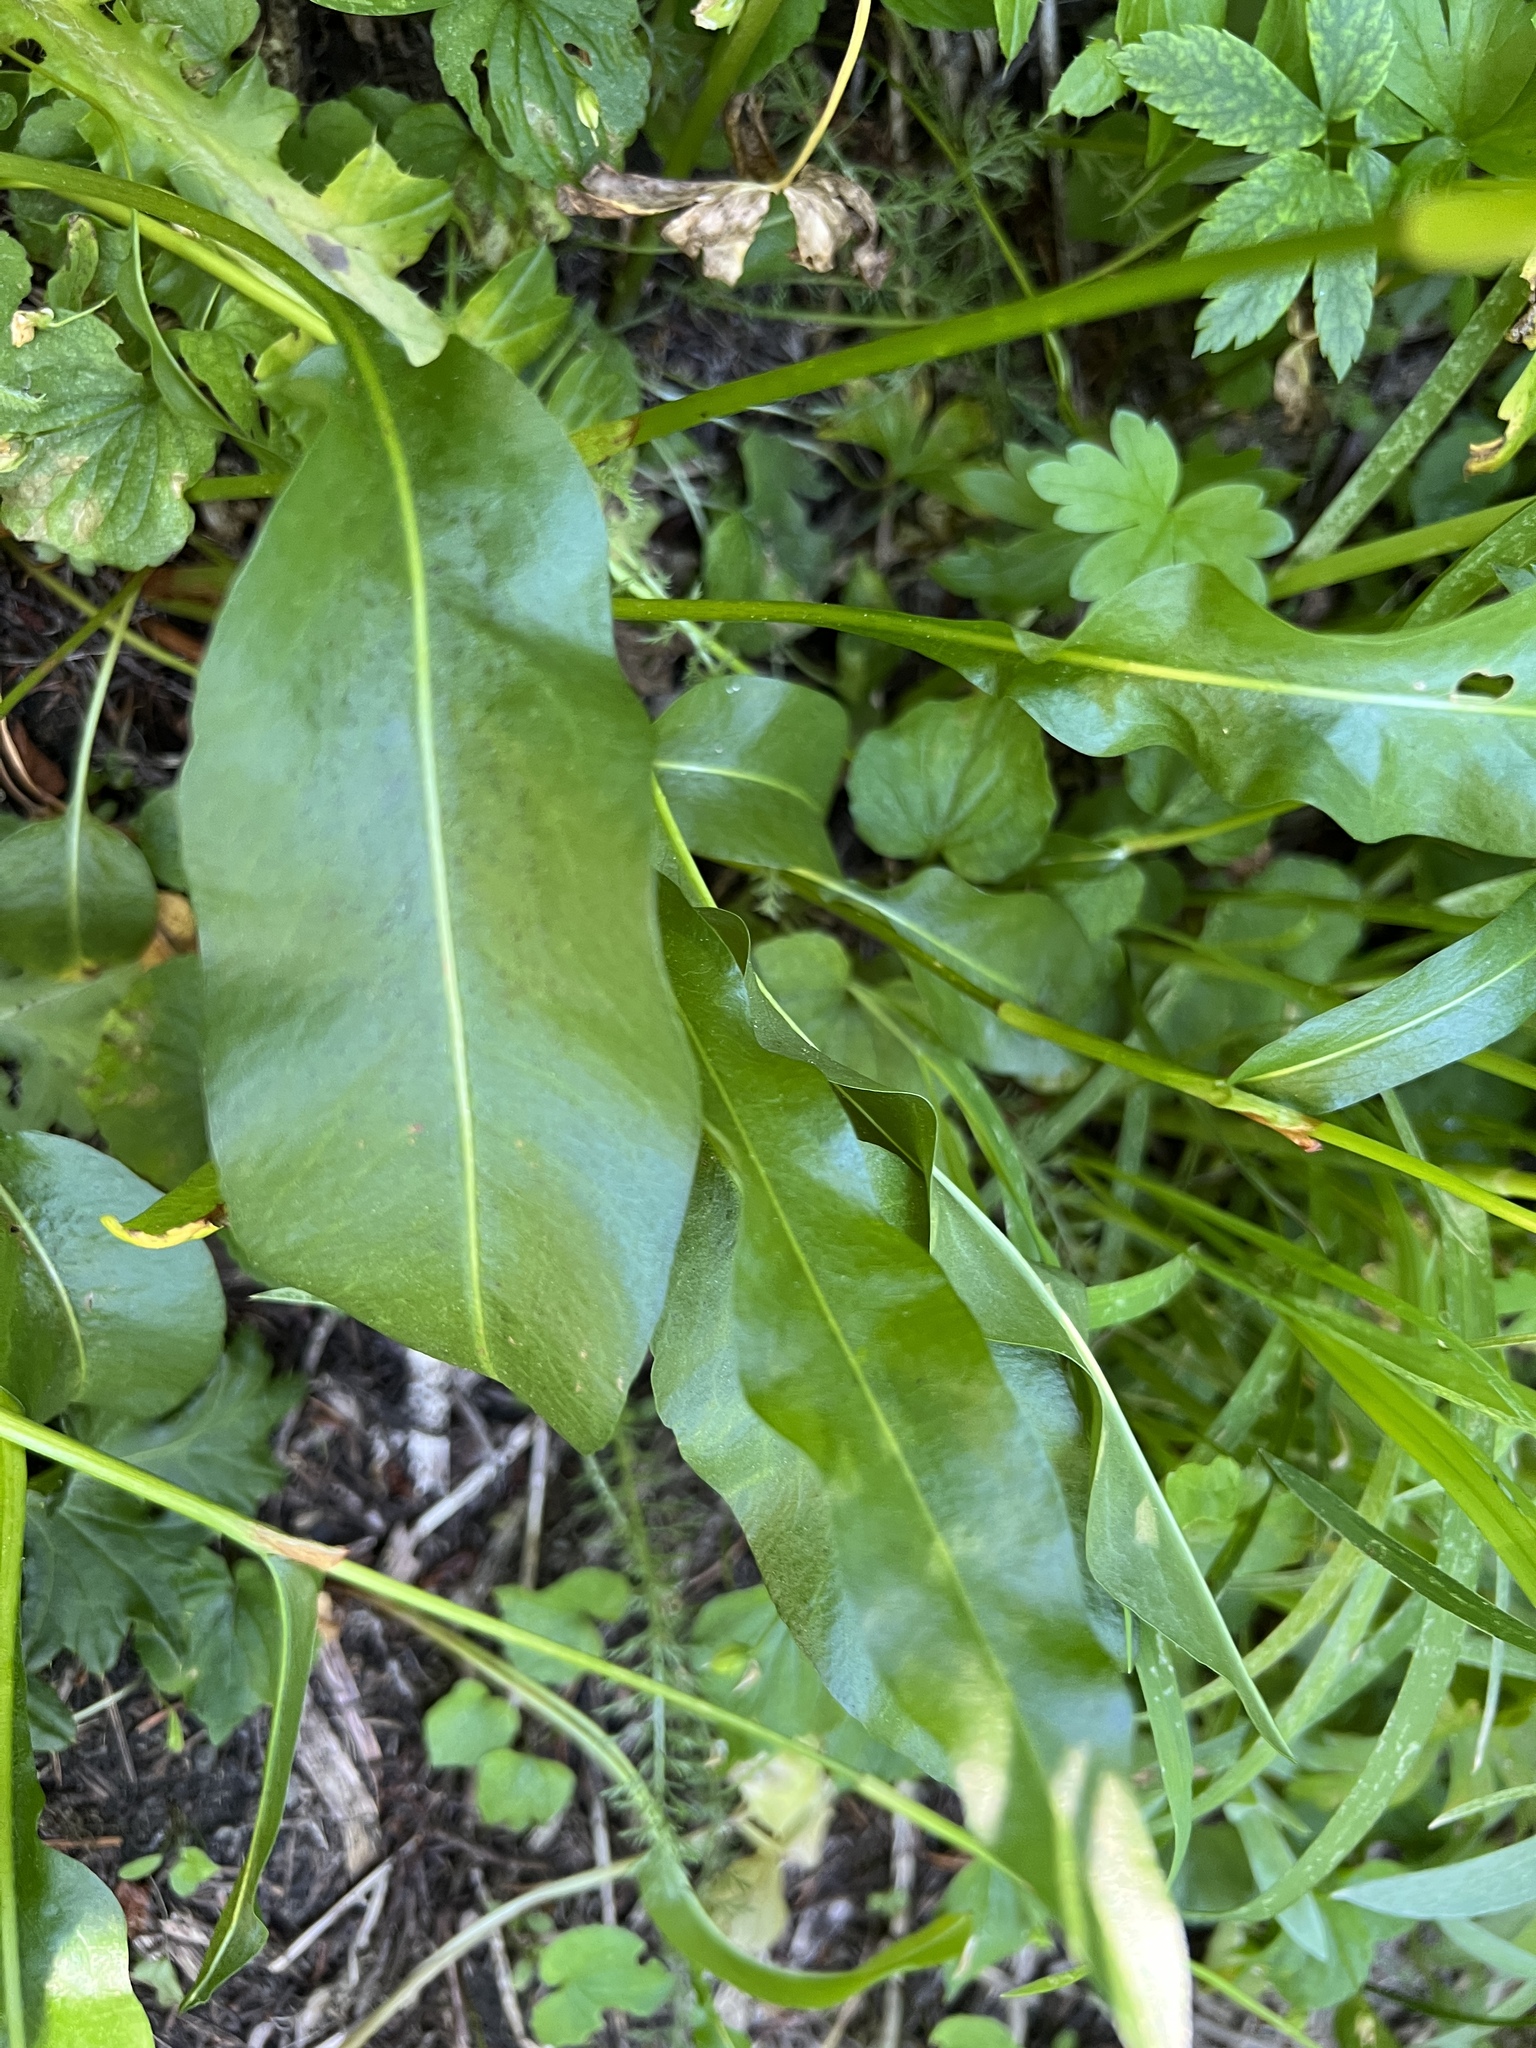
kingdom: Plantae
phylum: Tracheophyta
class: Magnoliopsida
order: Caryophyllales
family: Polygonaceae
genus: Bistorta
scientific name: Bistorta bistortoides
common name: American bistort
